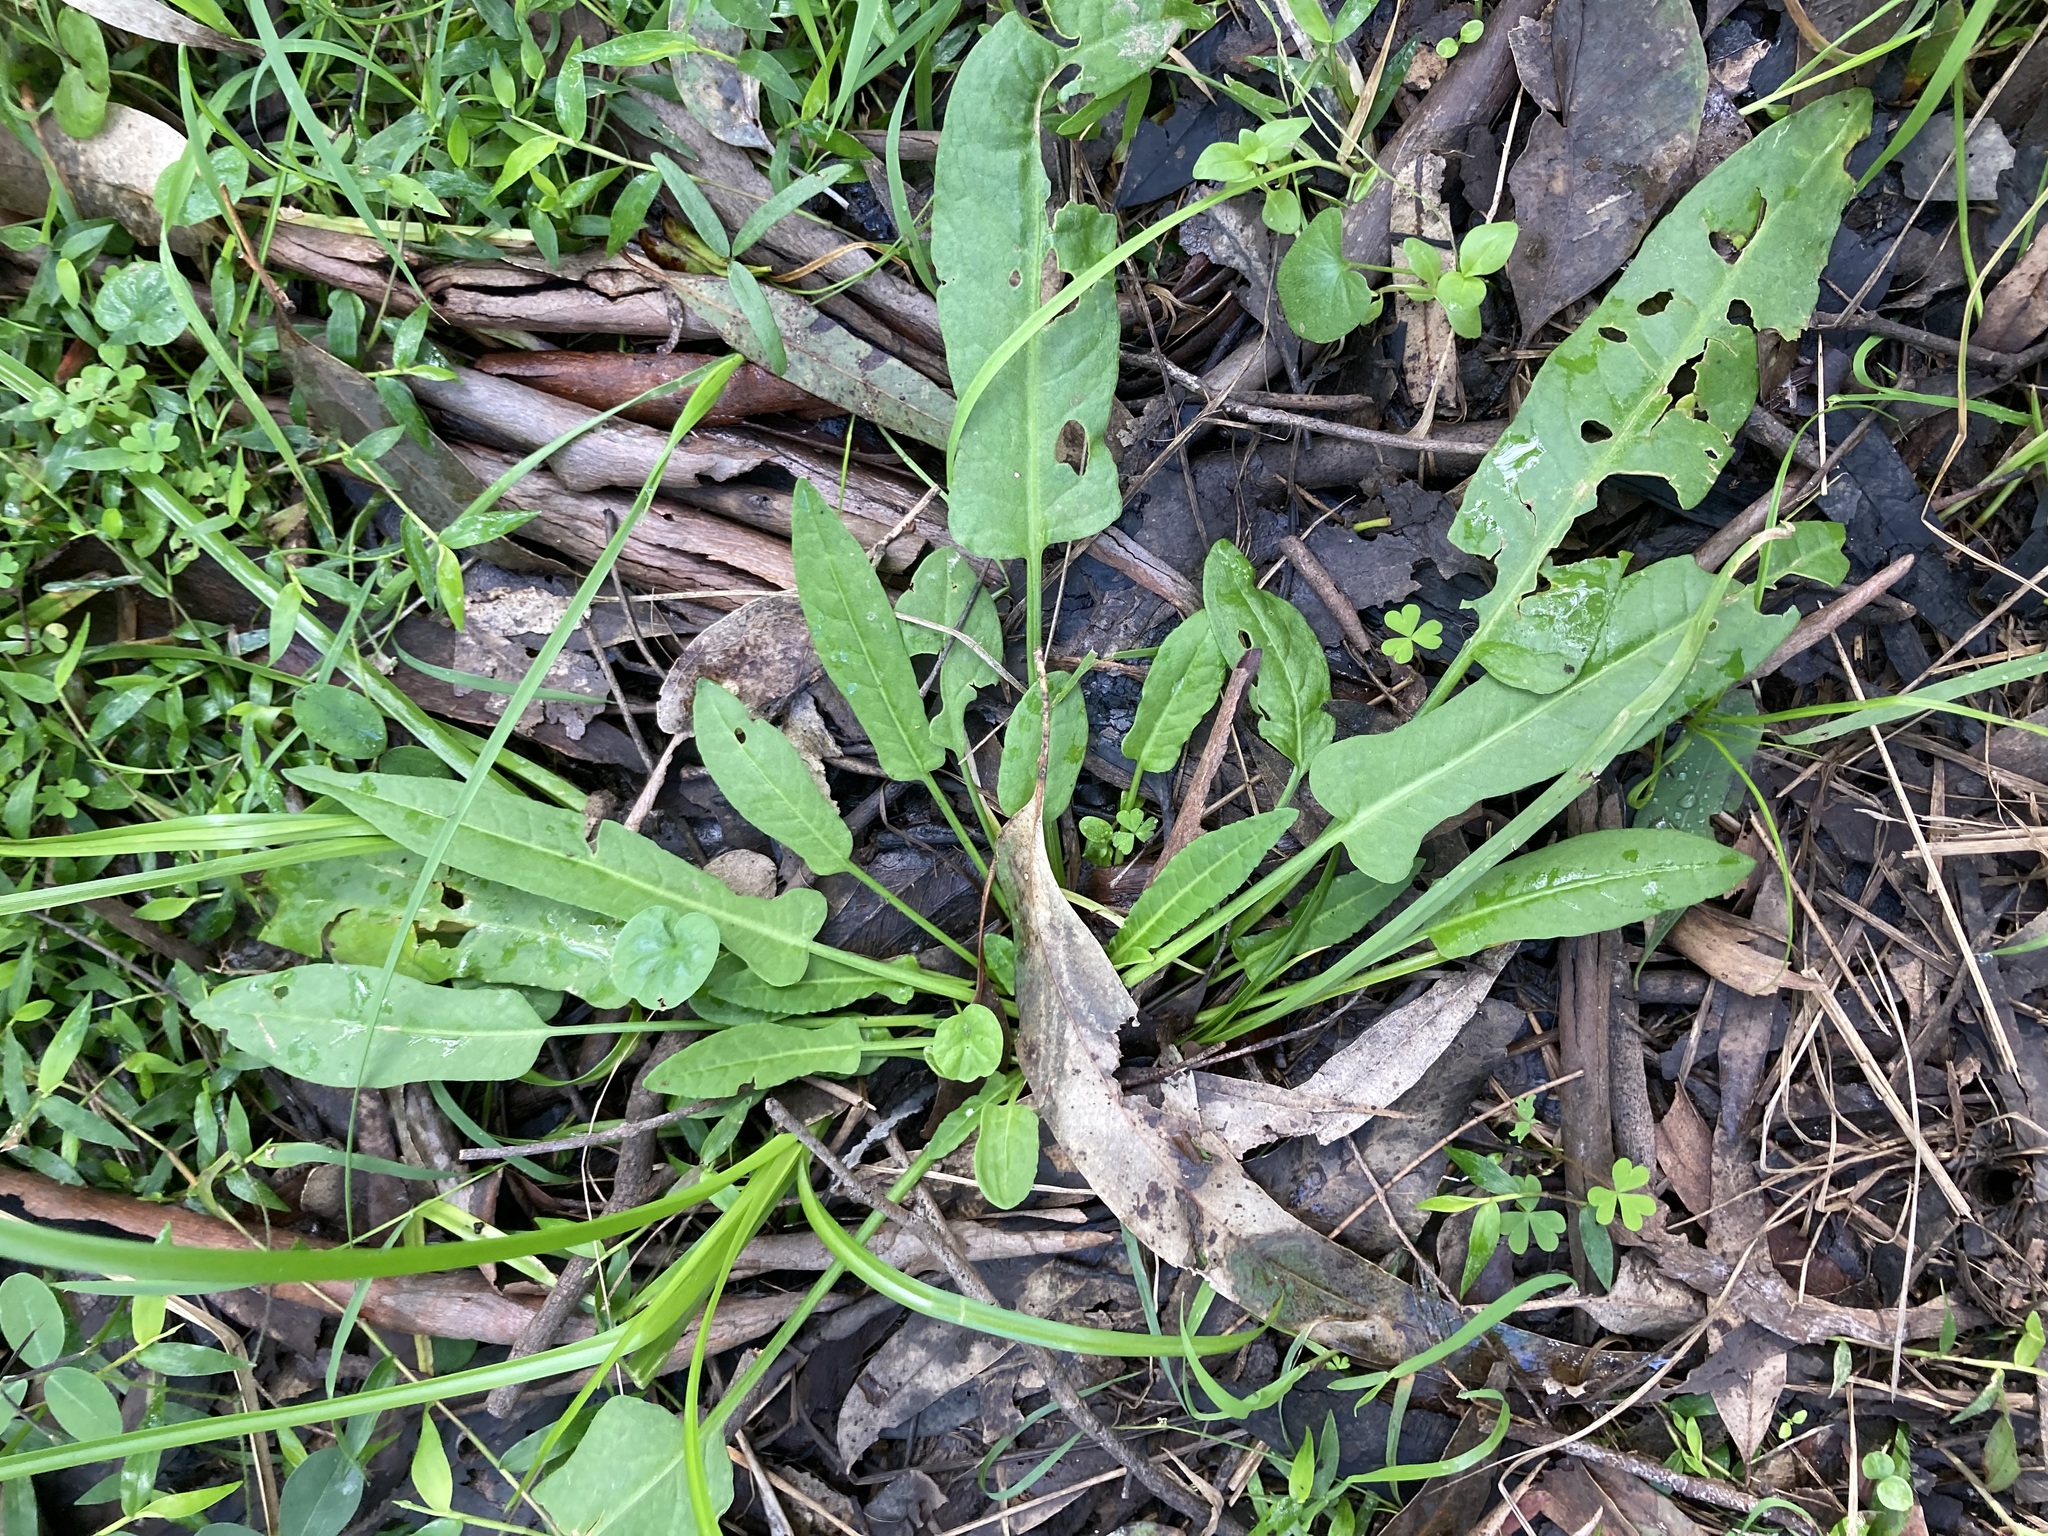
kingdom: Plantae
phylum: Tracheophyta
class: Magnoliopsida
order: Caryophyllales
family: Polygonaceae
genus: Rumex
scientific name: Rumex brownii
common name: Hooked dock
